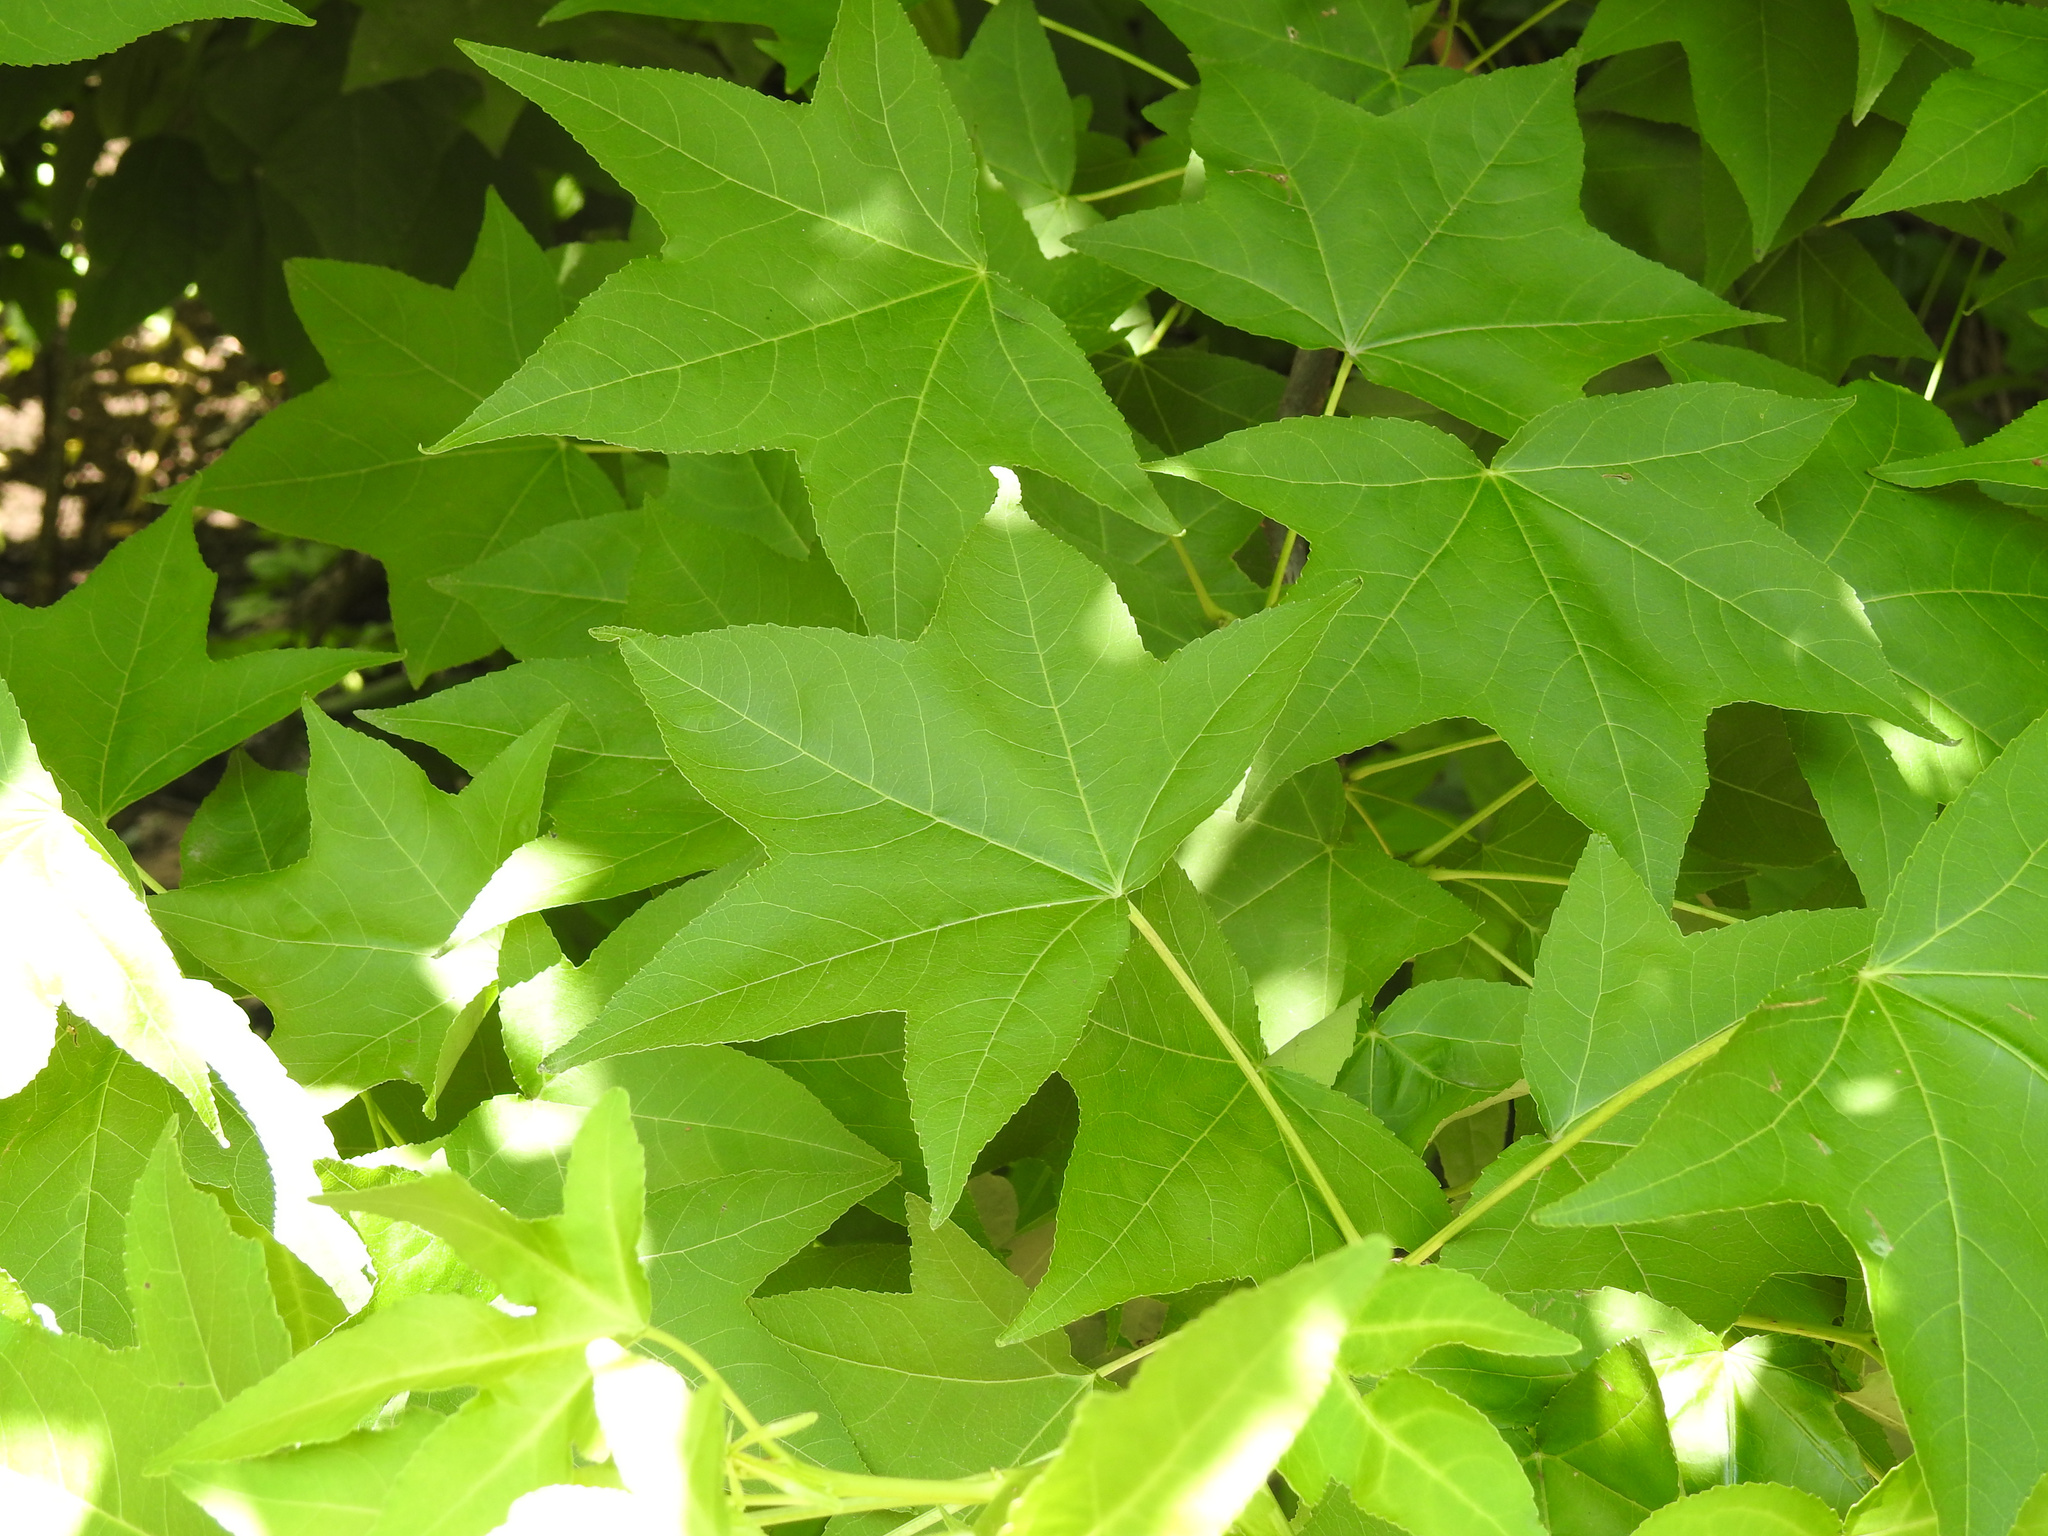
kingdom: Plantae
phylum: Tracheophyta
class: Magnoliopsida
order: Saxifragales
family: Altingiaceae
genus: Liquidambar
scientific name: Liquidambar styraciflua
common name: Sweet gum
